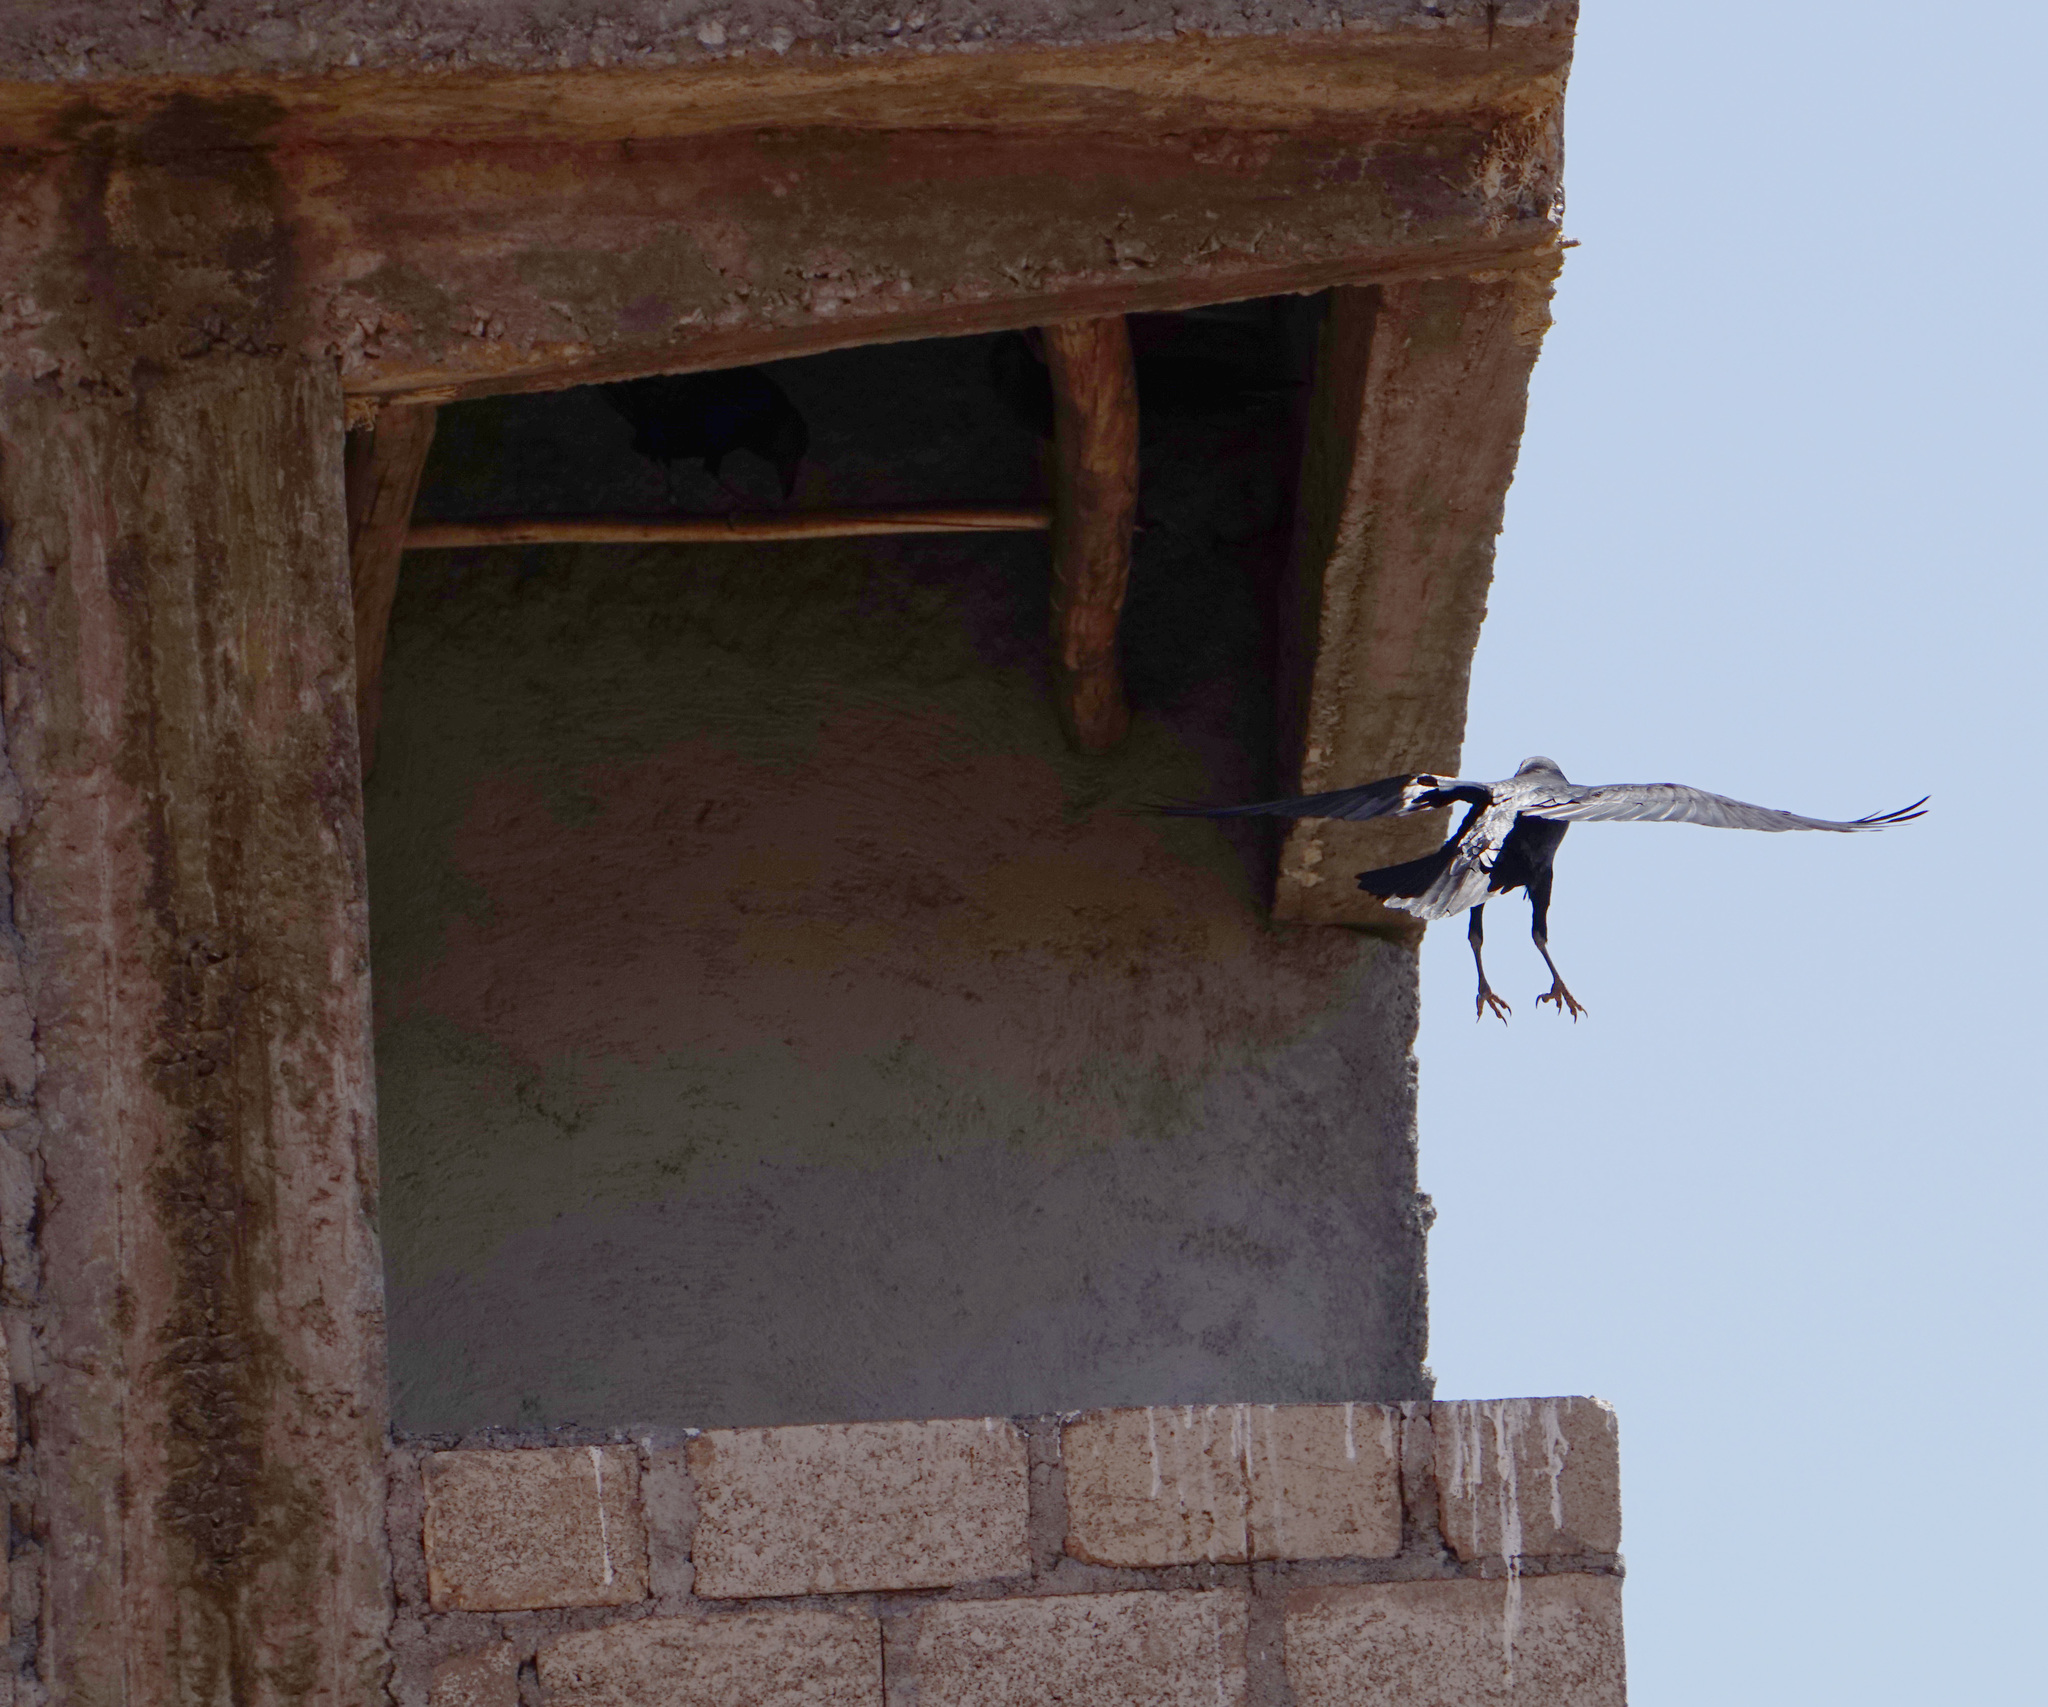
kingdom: Animalia
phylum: Chordata
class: Aves
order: Passeriformes
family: Corvidae
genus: Corvus
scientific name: Corvus rhipidurus
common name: Fan-tailed raven
